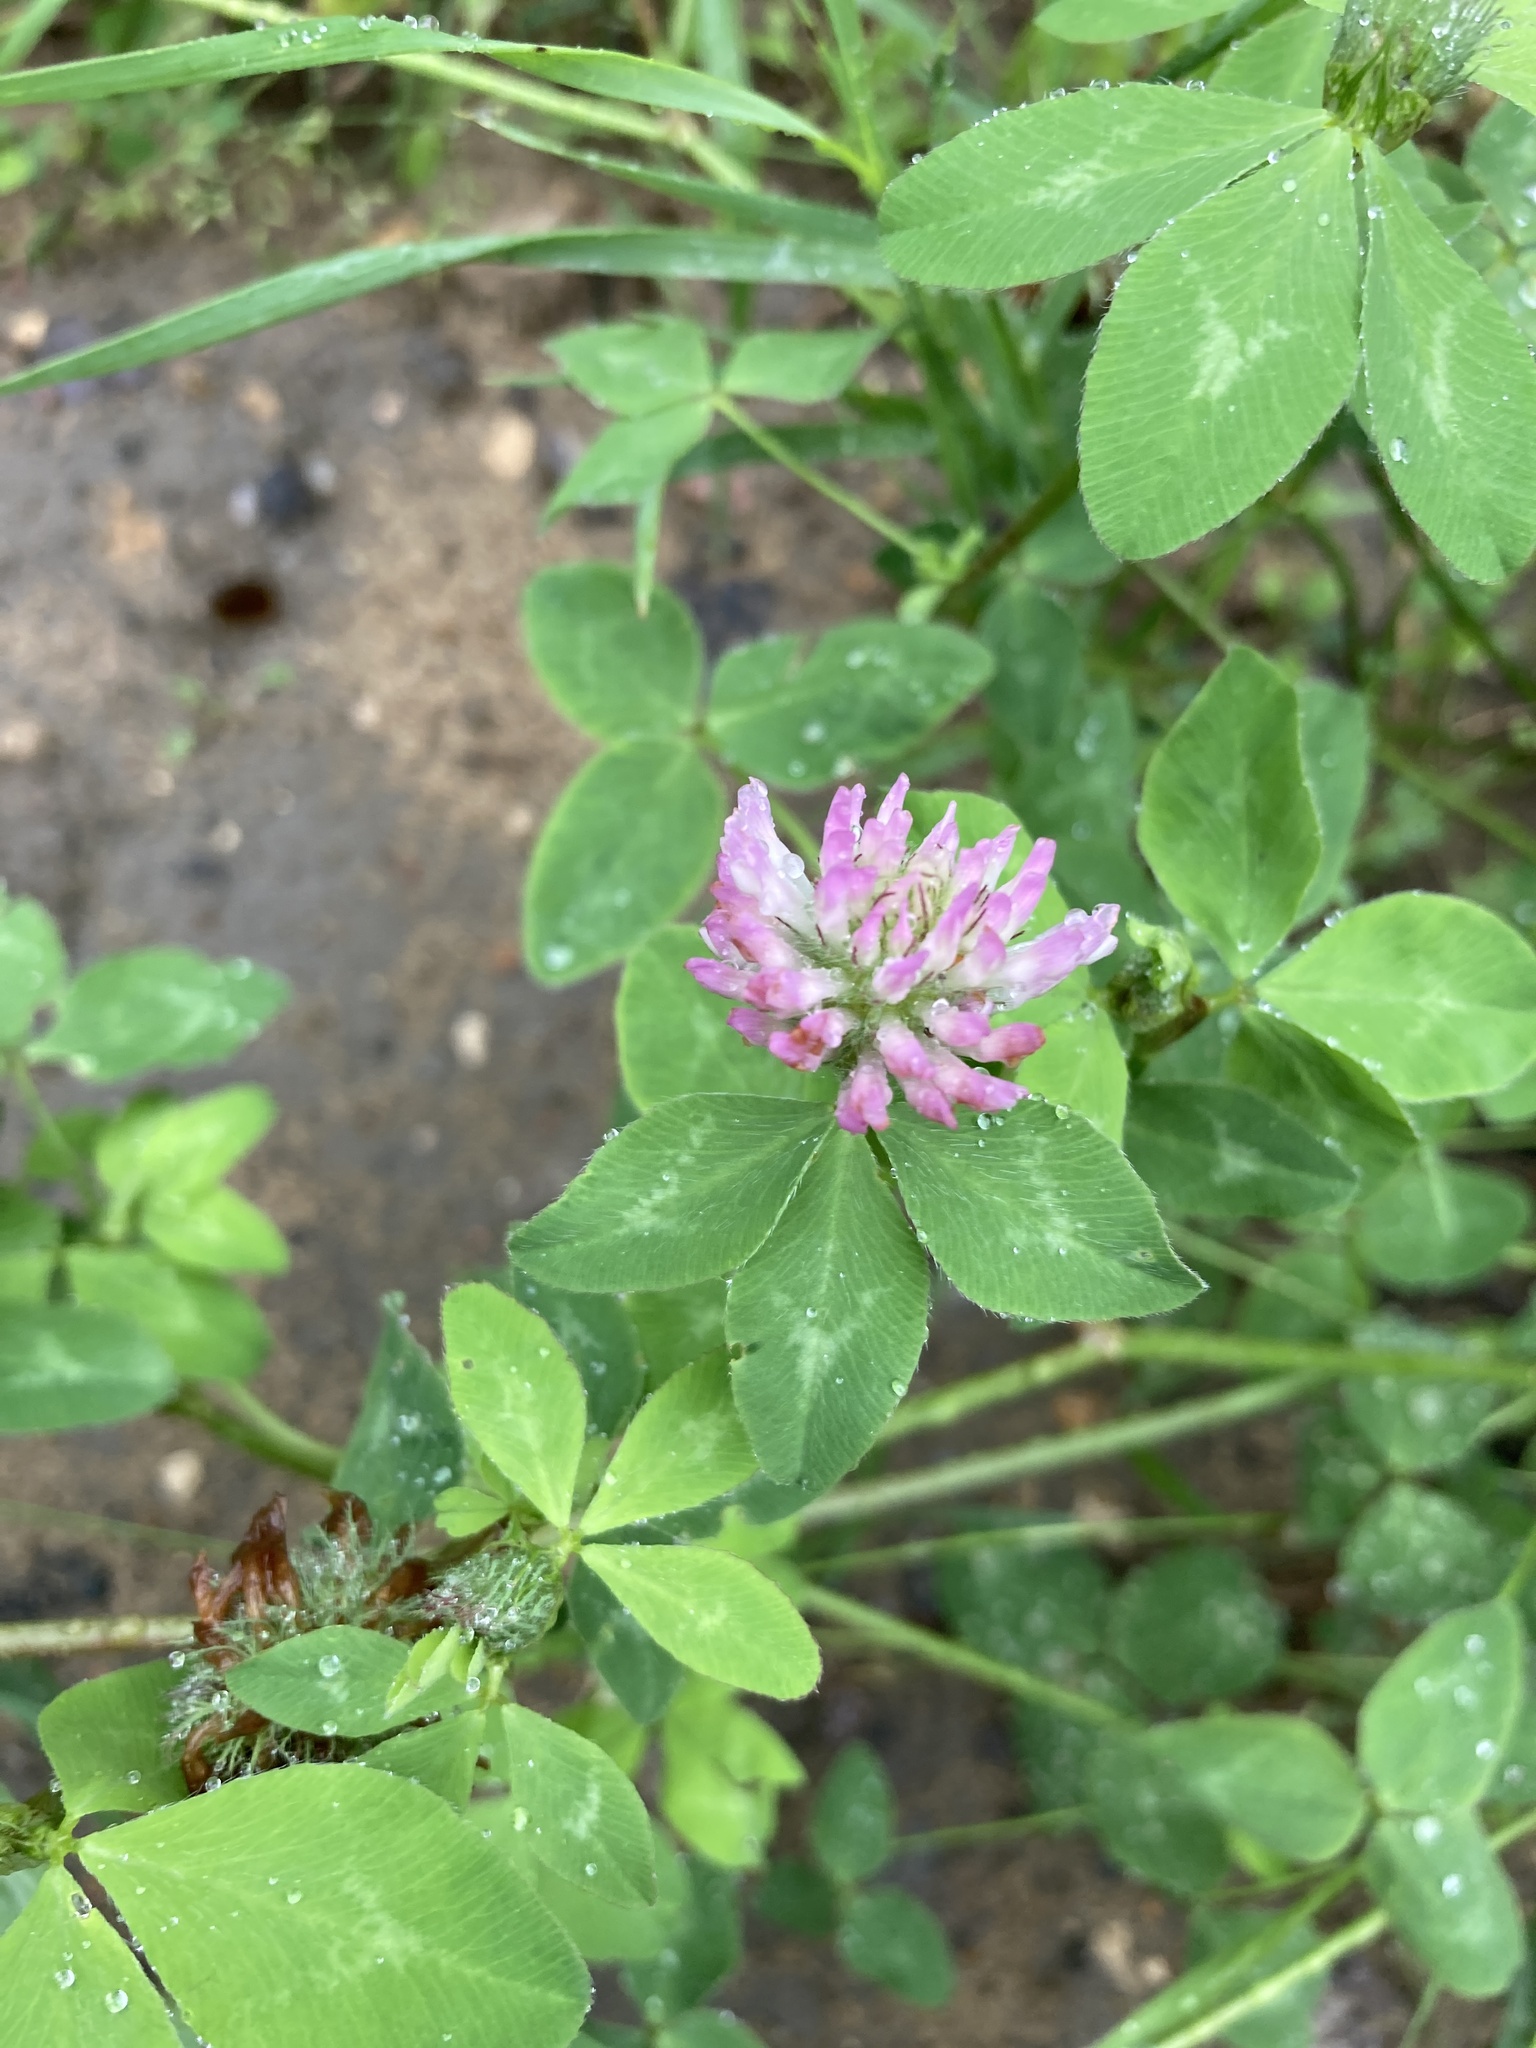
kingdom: Plantae
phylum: Tracheophyta
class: Magnoliopsida
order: Fabales
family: Fabaceae
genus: Trifolium
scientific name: Trifolium pratense
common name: Red clover
